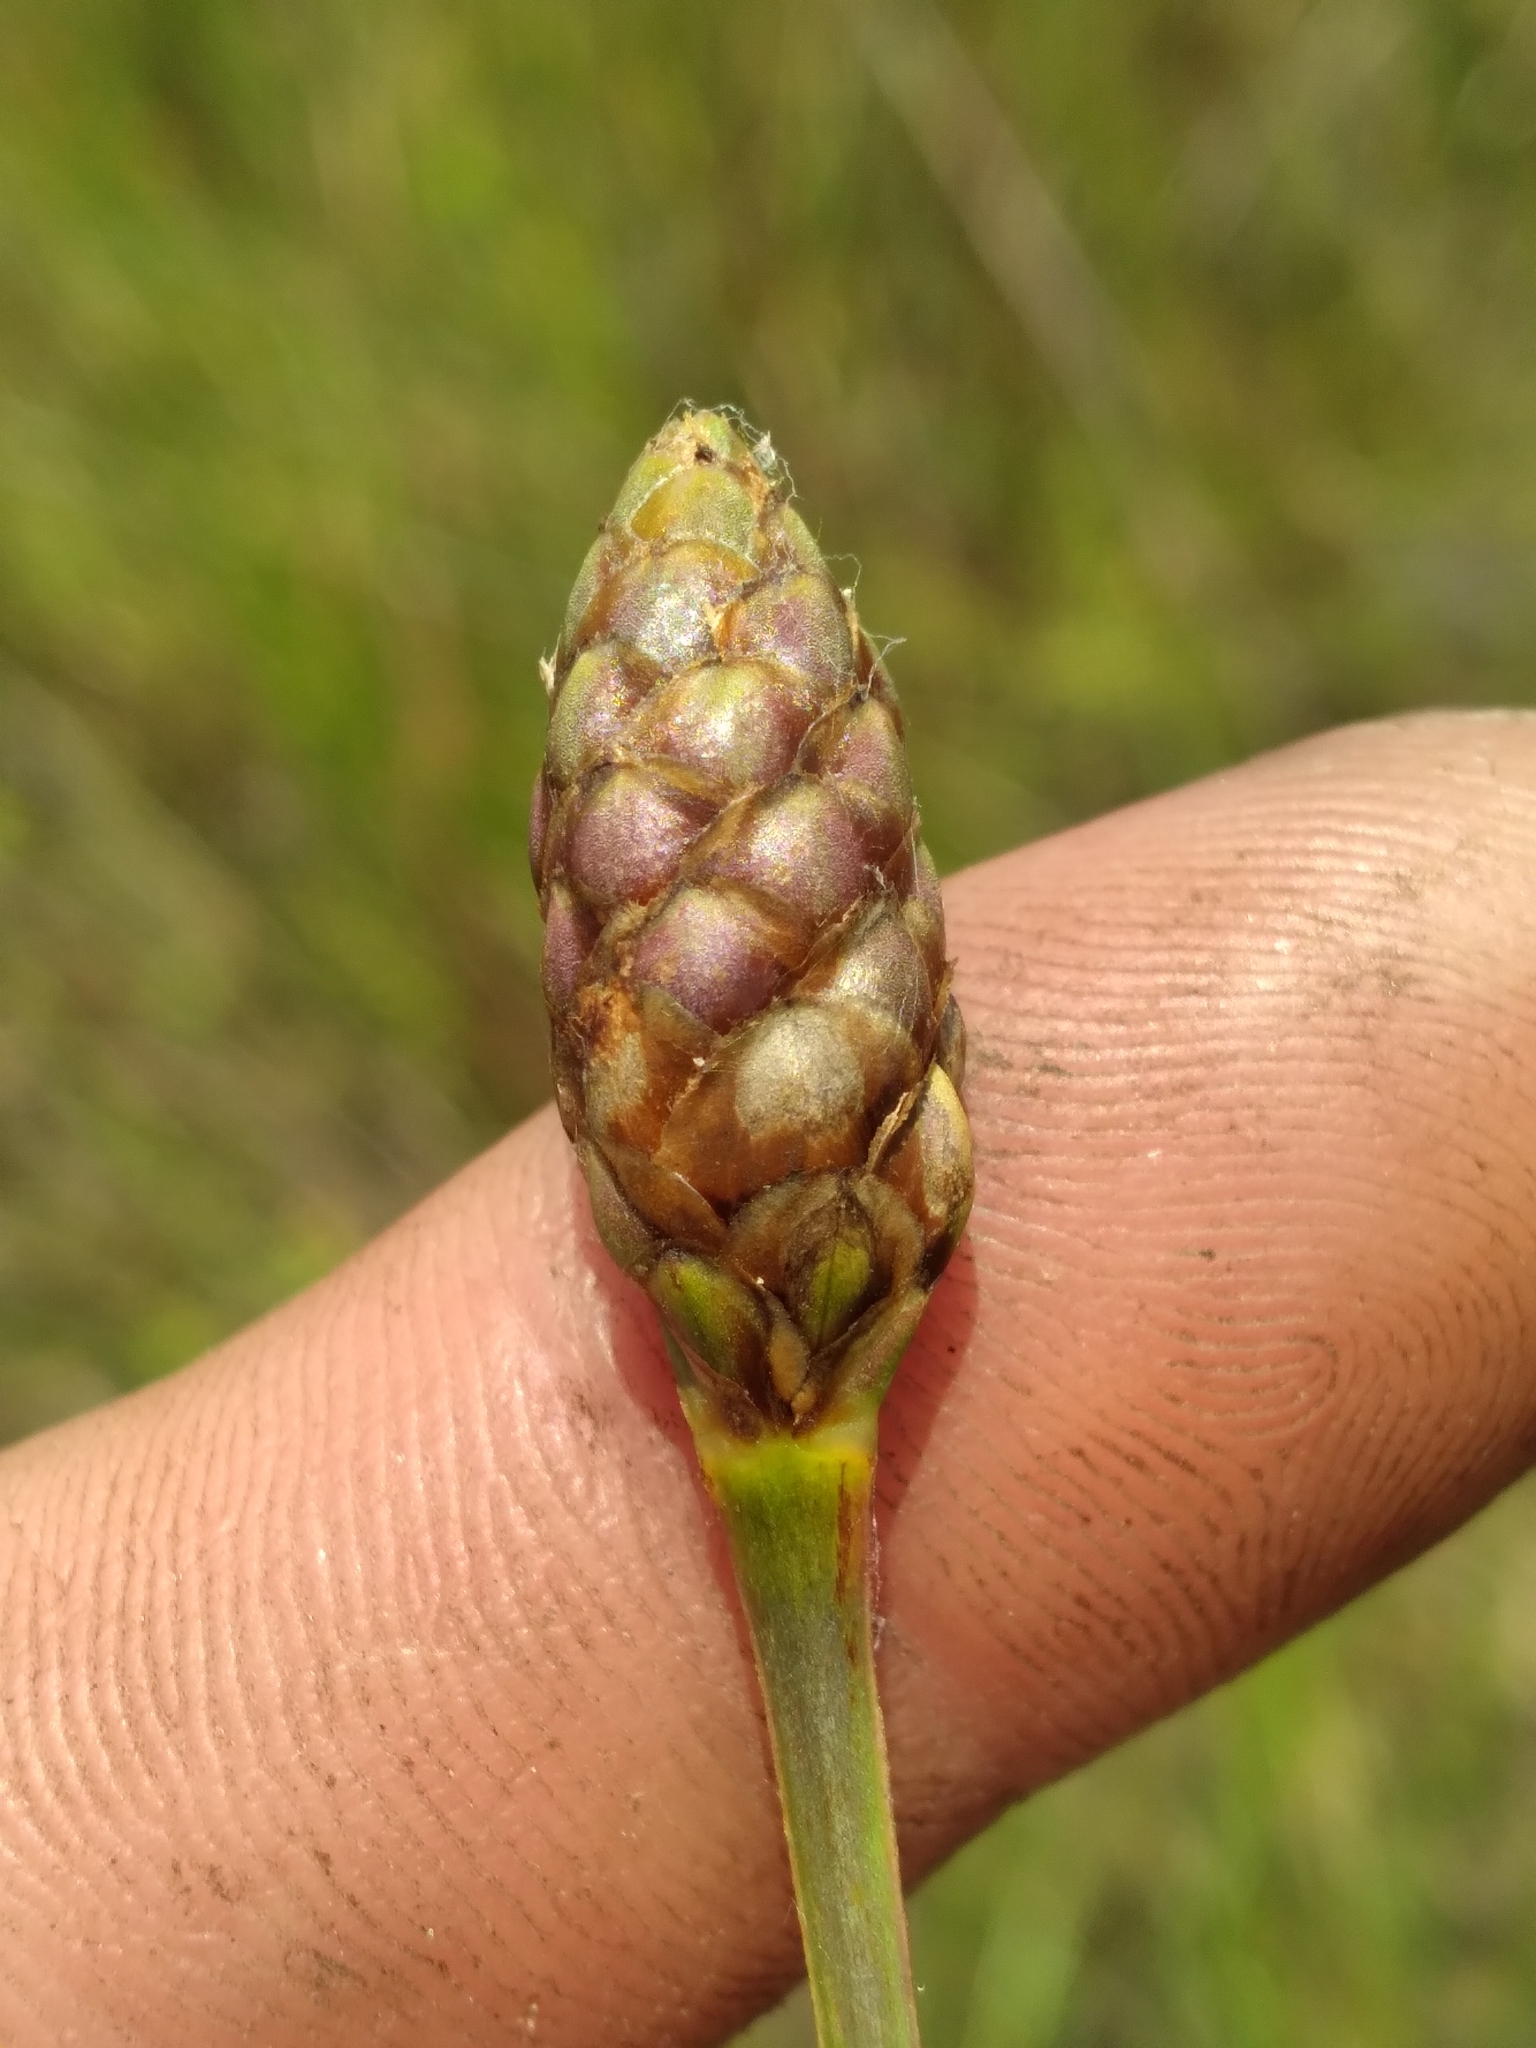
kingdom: Plantae
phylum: Tracheophyta
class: Liliopsida
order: Poales
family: Xyridaceae
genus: Xyris
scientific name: Xyris smalliana
